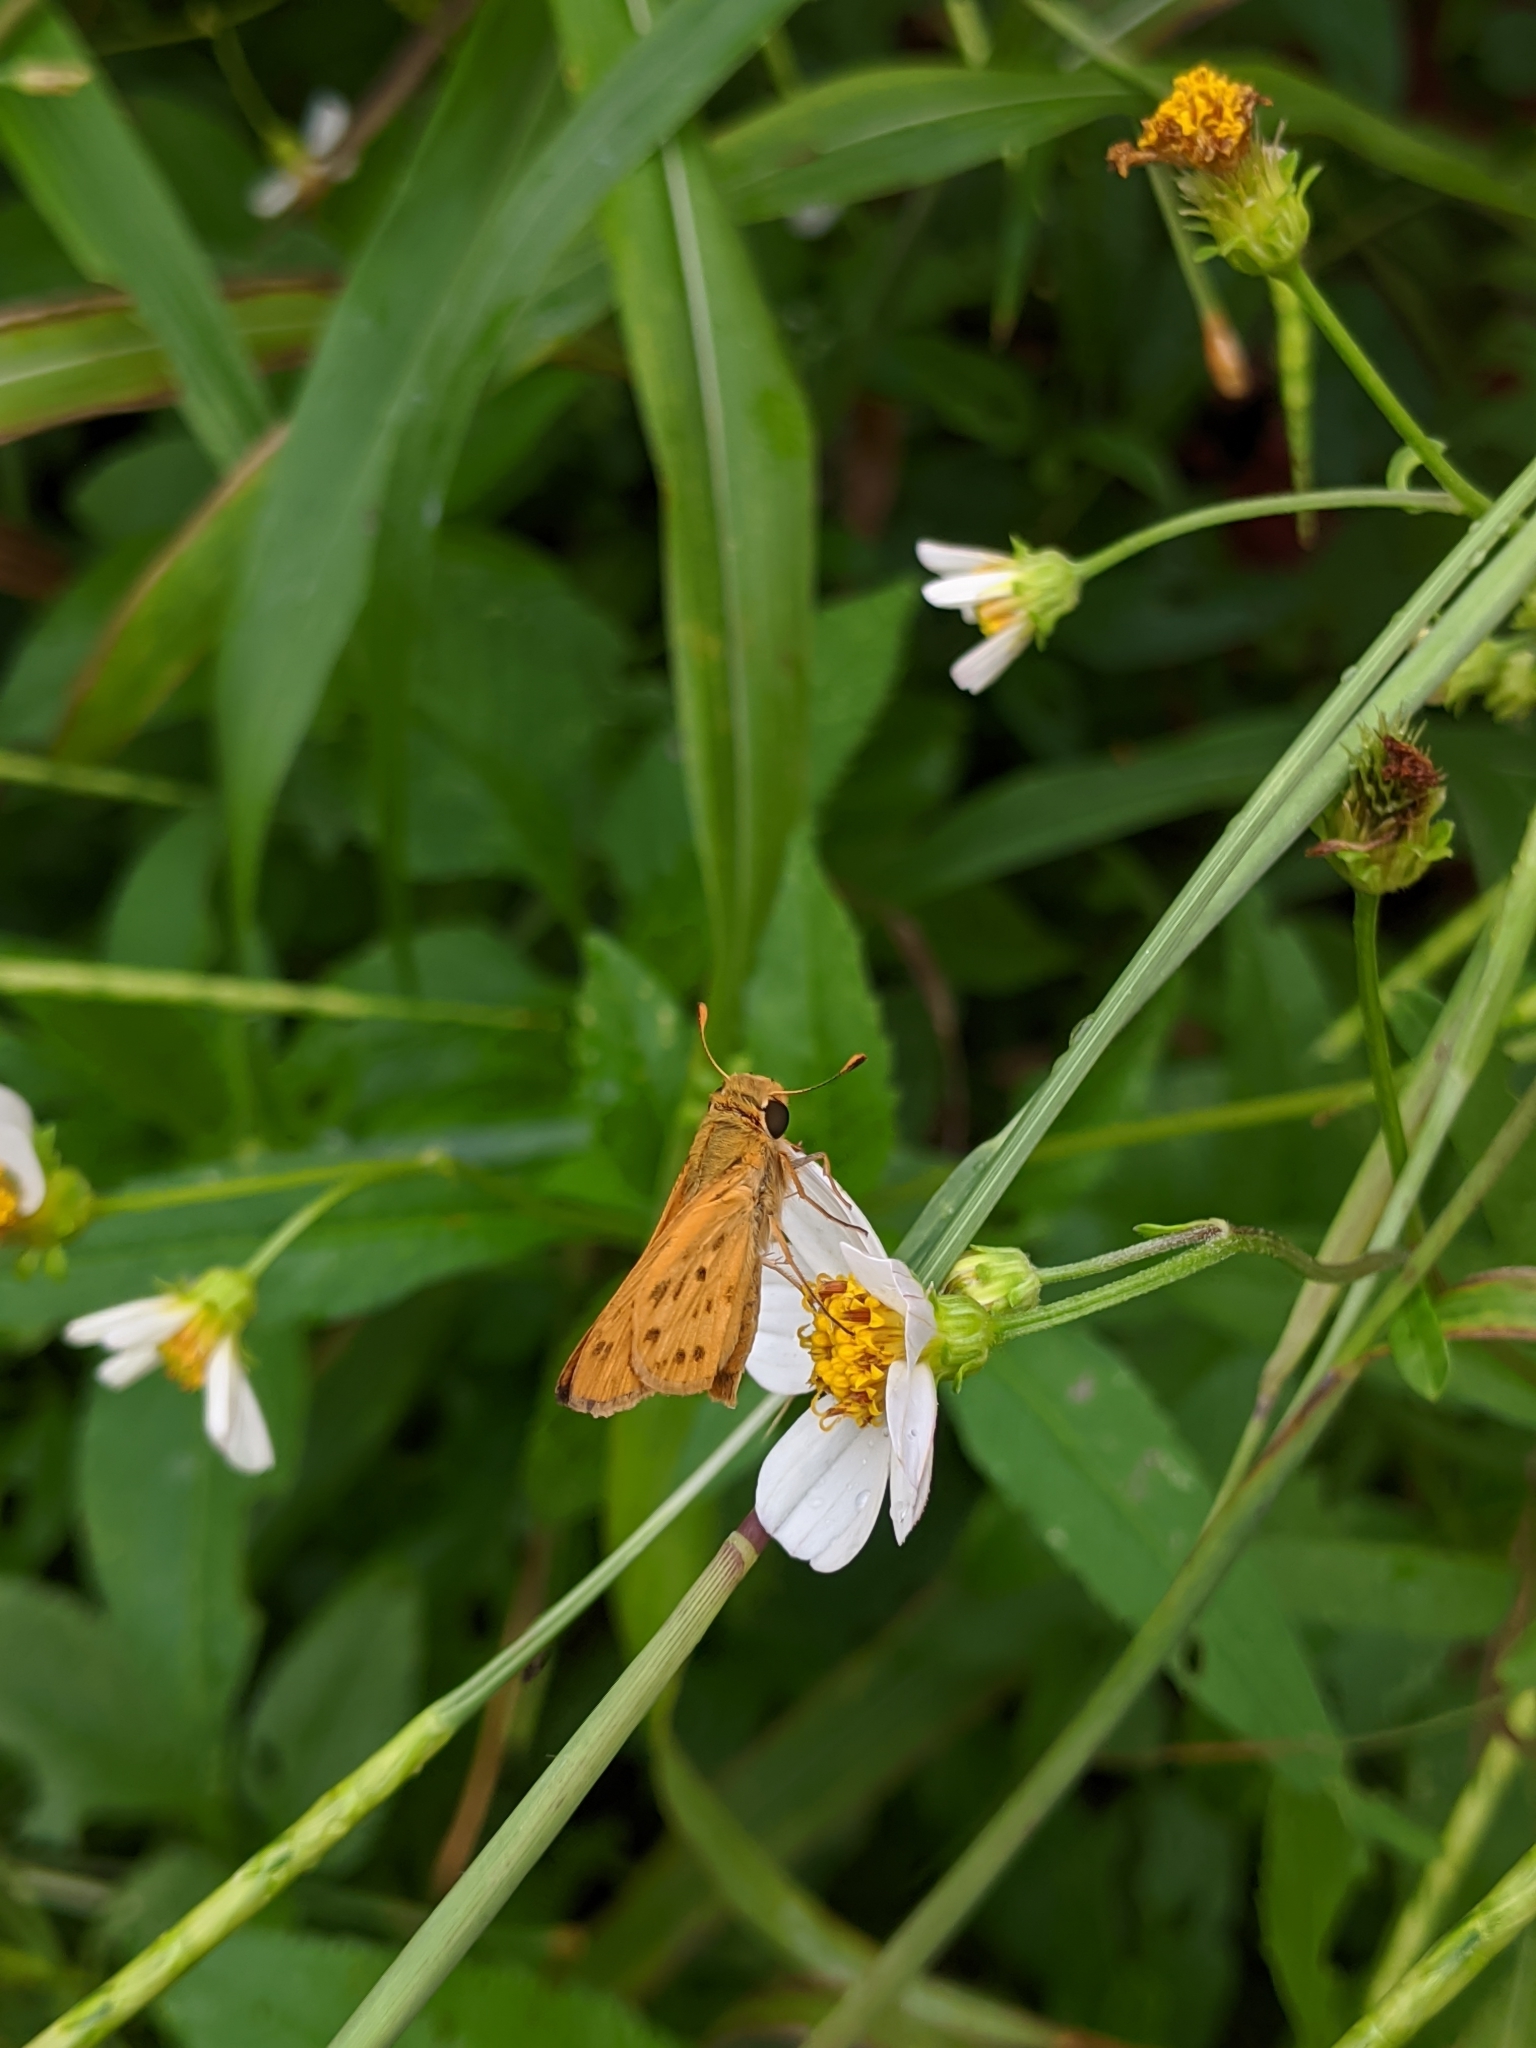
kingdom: Animalia
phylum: Arthropoda
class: Insecta
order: Lepidoptera
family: Hesperiidae
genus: Hylephila
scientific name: Hylephila phyleus
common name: Fiery skipper
